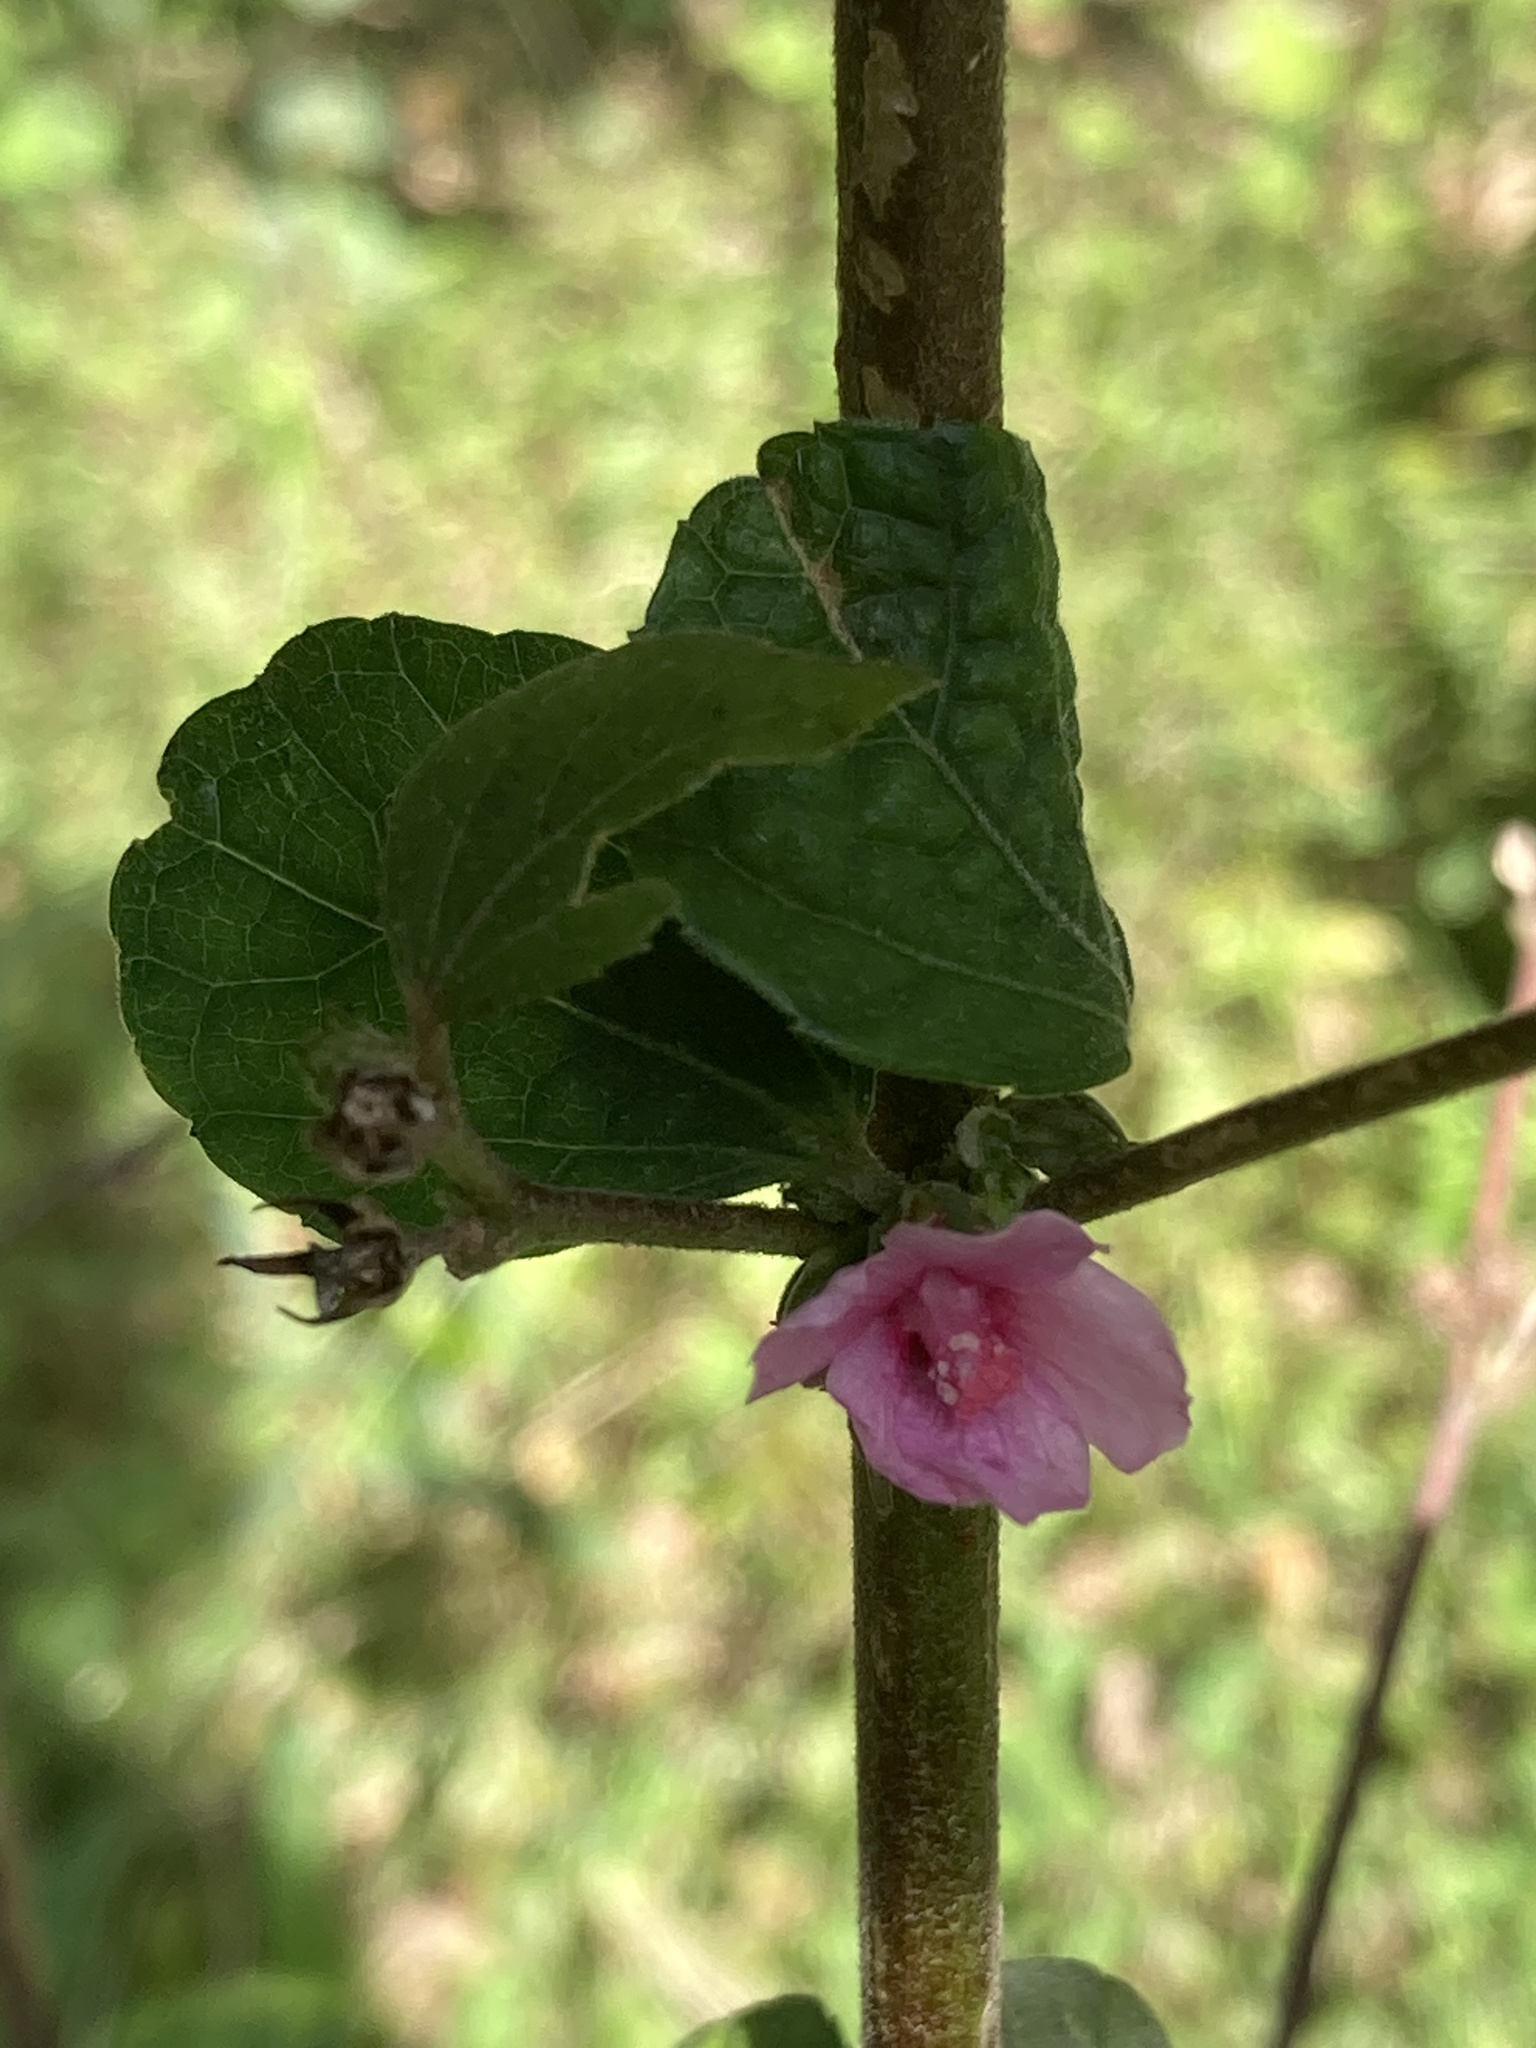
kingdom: Plantae
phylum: Tracheophyta
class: Magnoliopsida
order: Malvales
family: Malvaceae
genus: Urena
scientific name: Urena lobata
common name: Caesarweed
